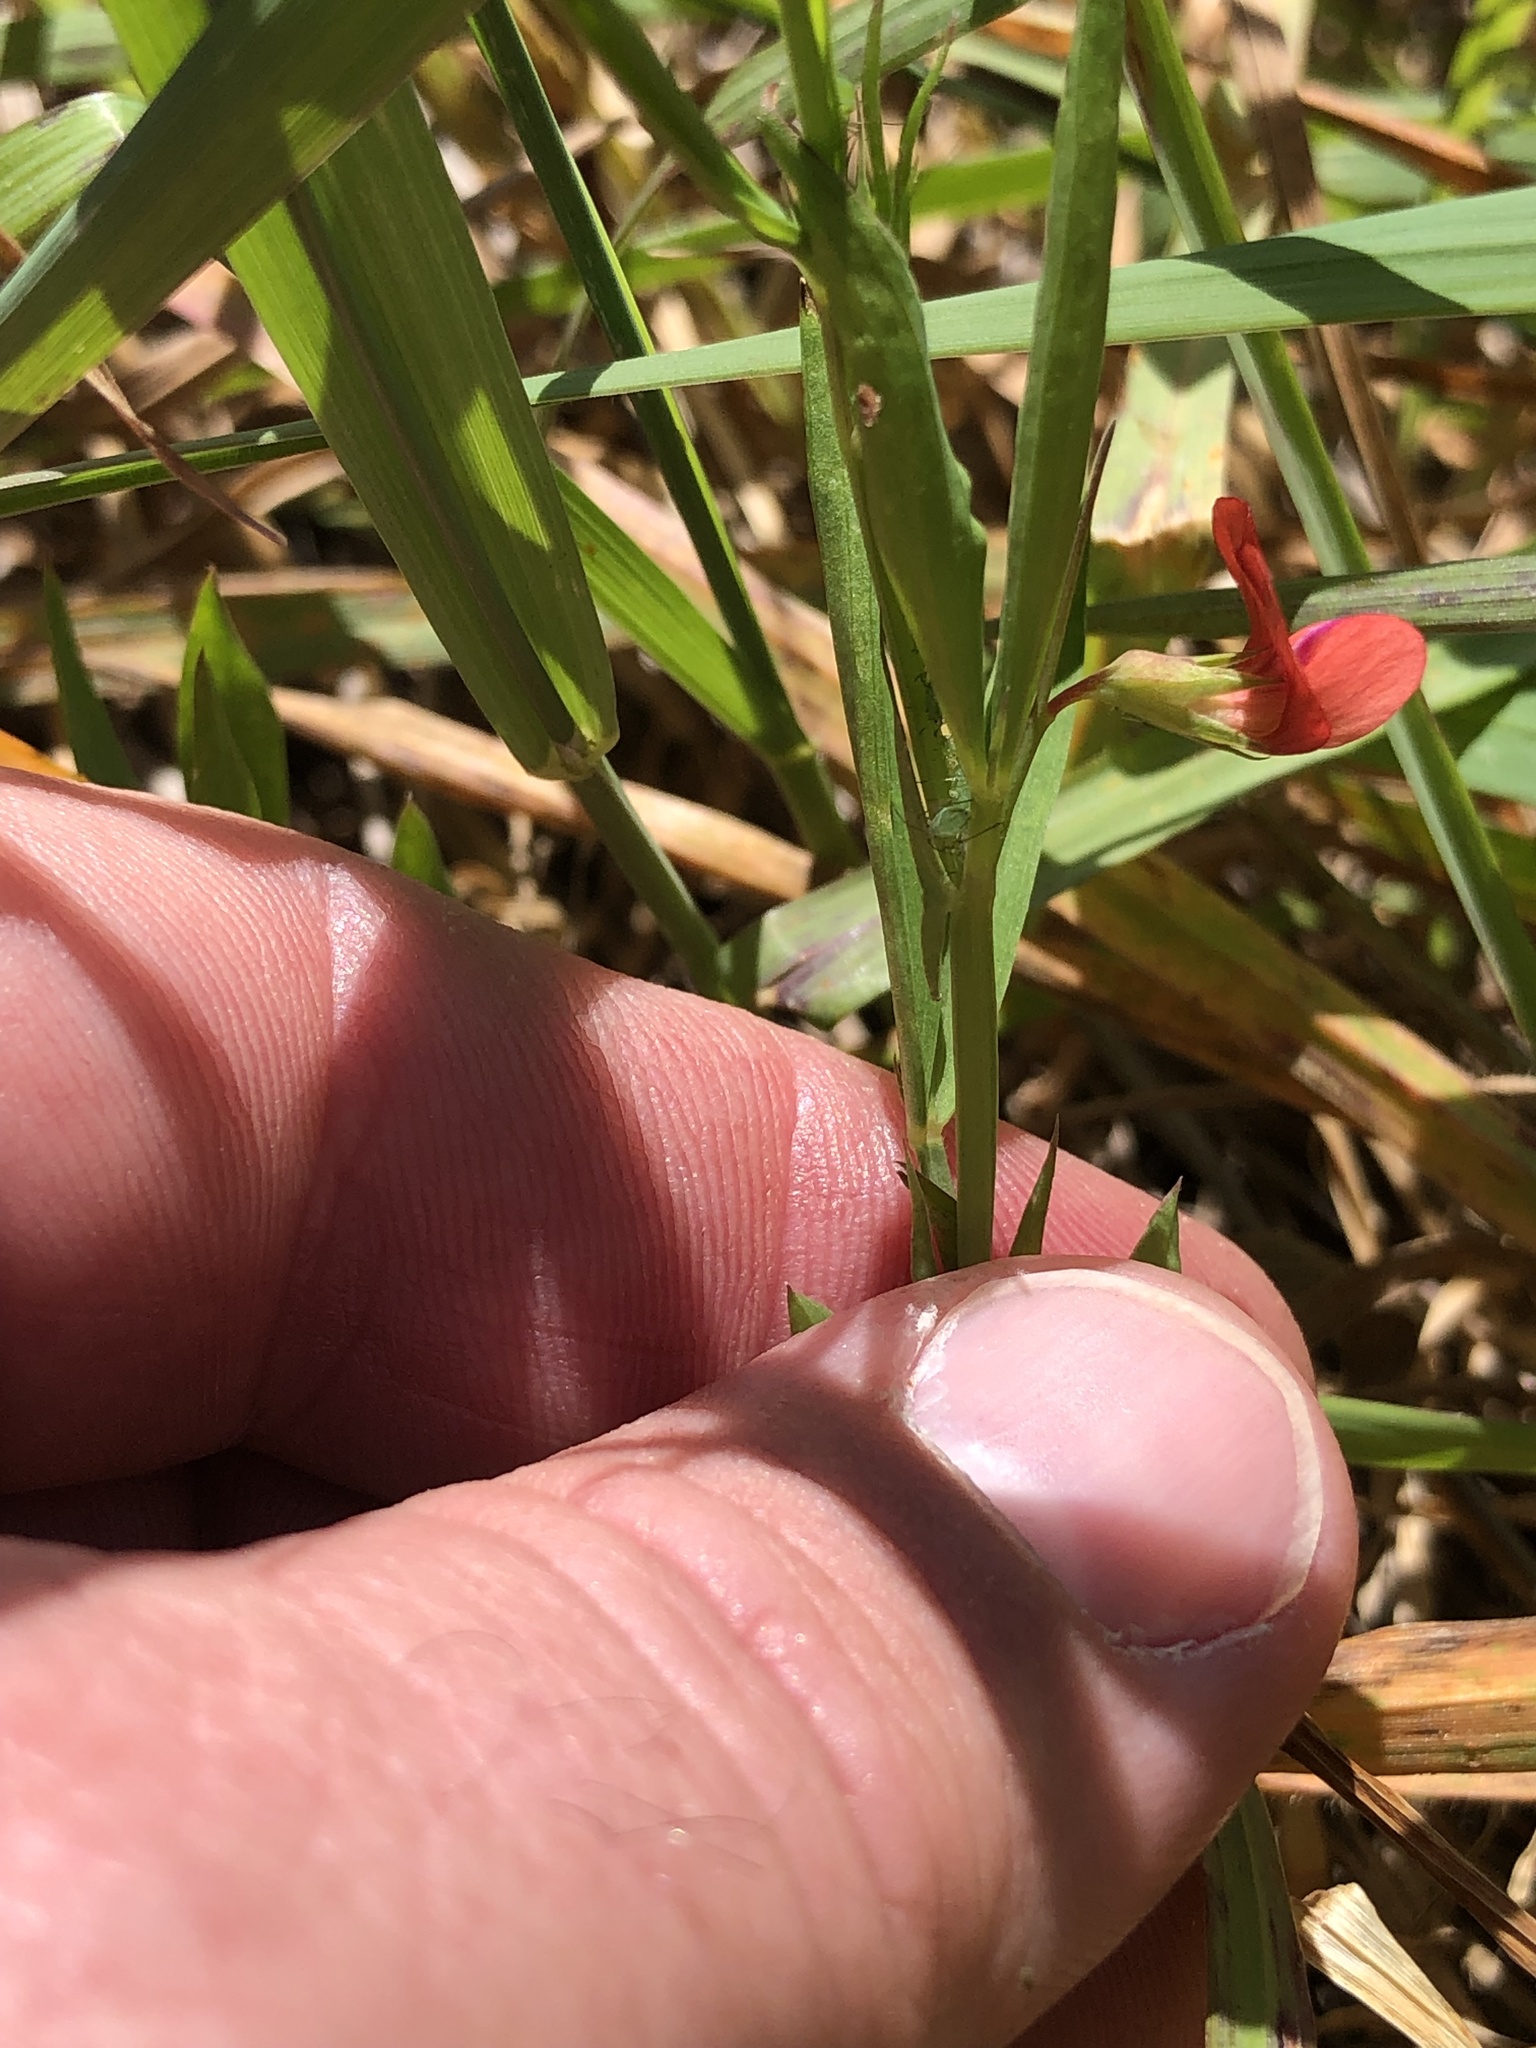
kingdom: Plantae
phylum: Tracheophyta
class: Magnoliopsida
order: Fabales
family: Fabaceae
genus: Lathyrus
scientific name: Lathyrus sphaericus
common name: Grass pea
